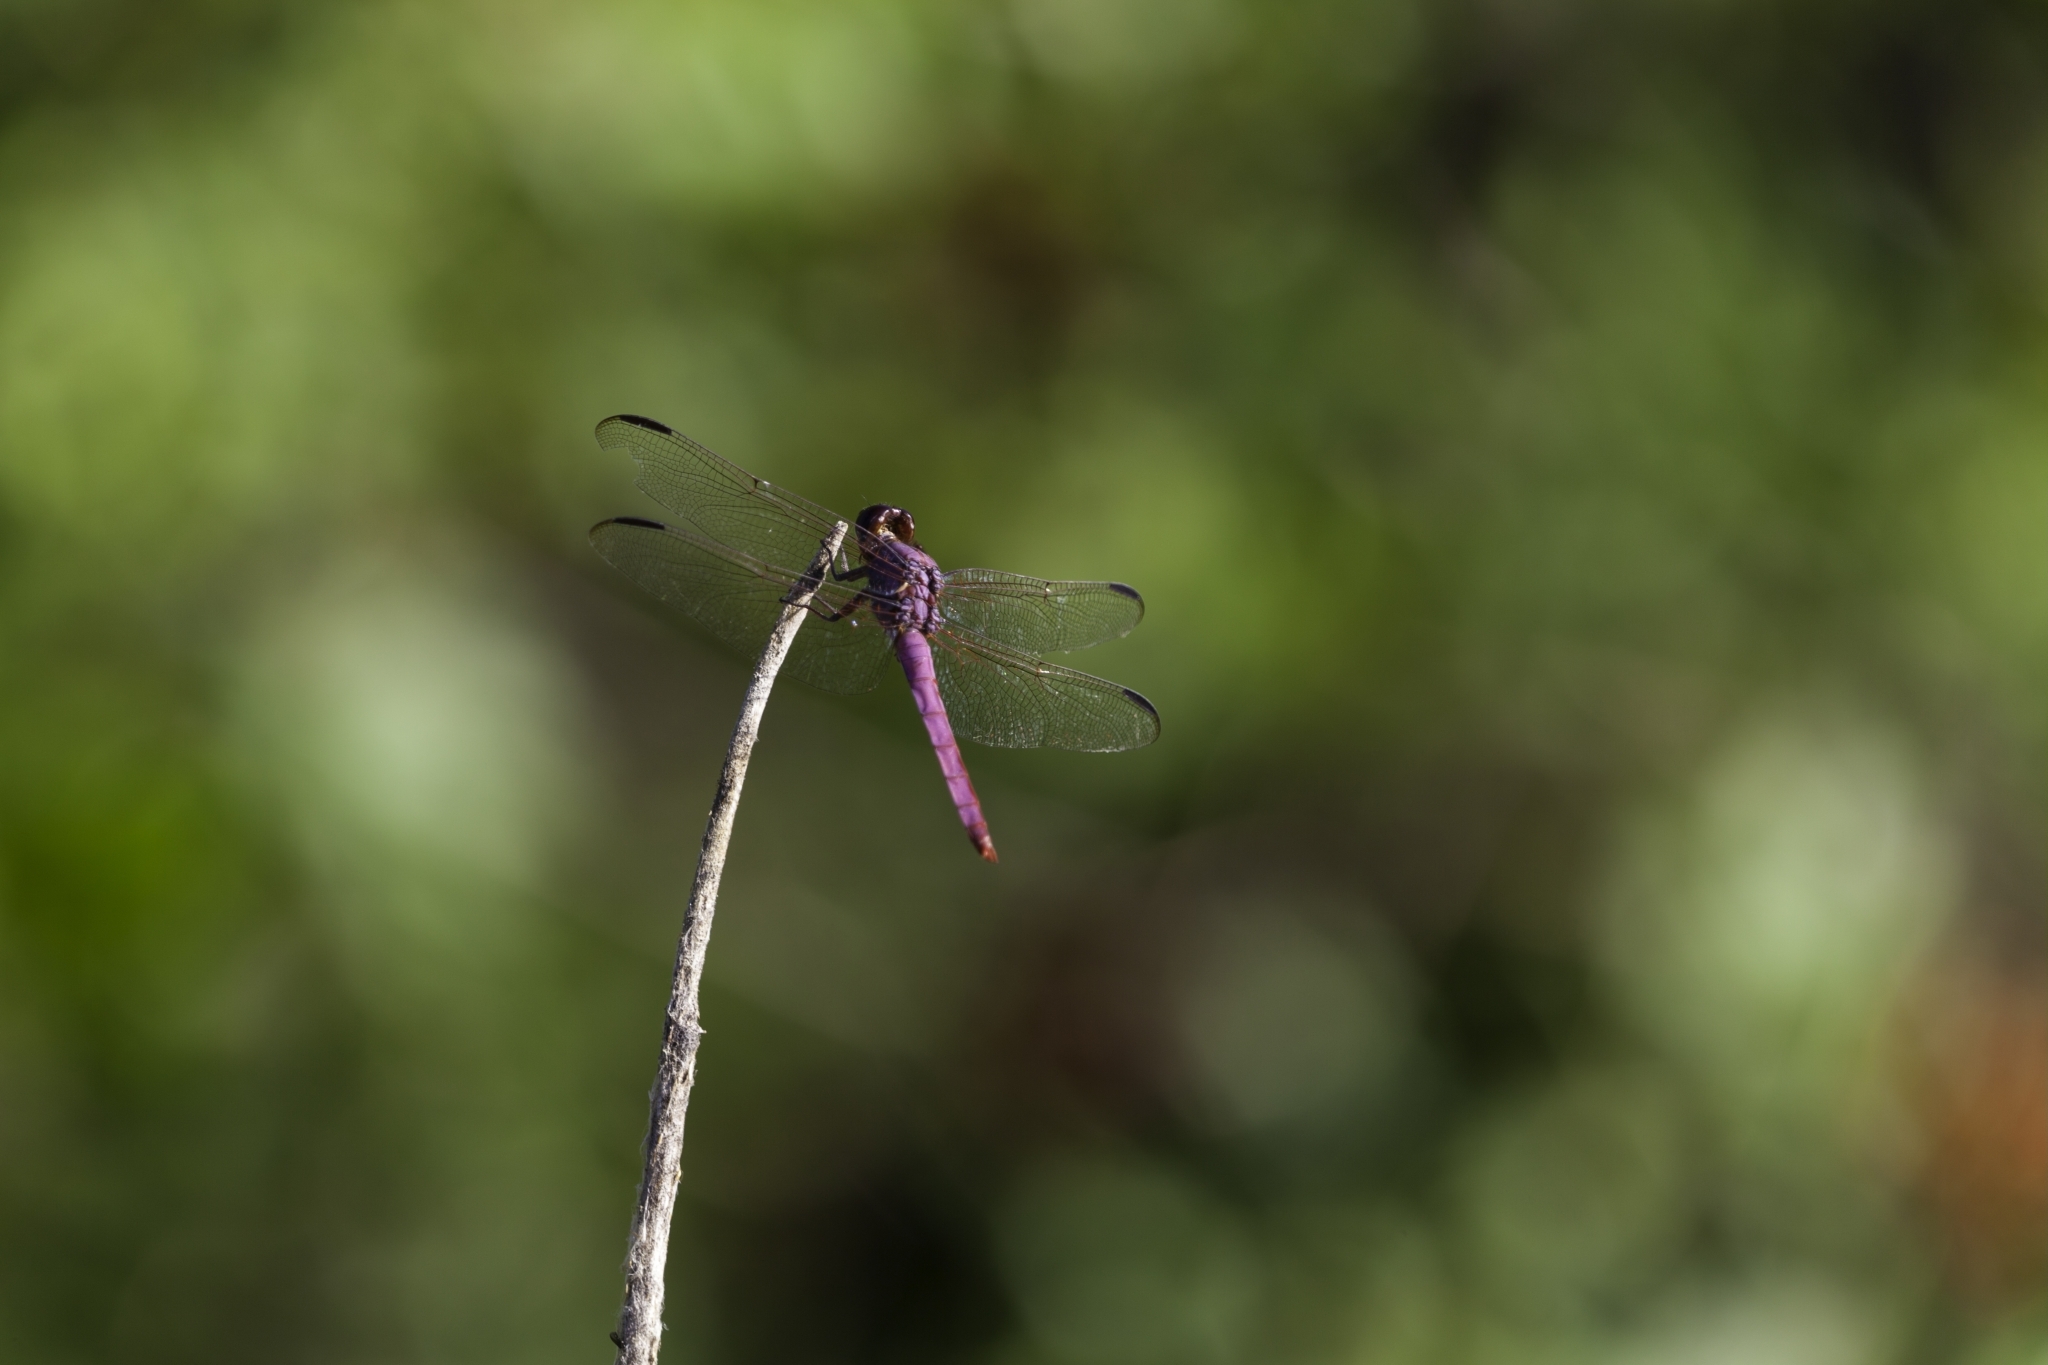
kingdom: Animalia
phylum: Arthropoda
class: Insecta
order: Odonata
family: Libellulidae
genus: Orthemis
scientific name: Orthemis ferruginea
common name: Roseate skimmer
